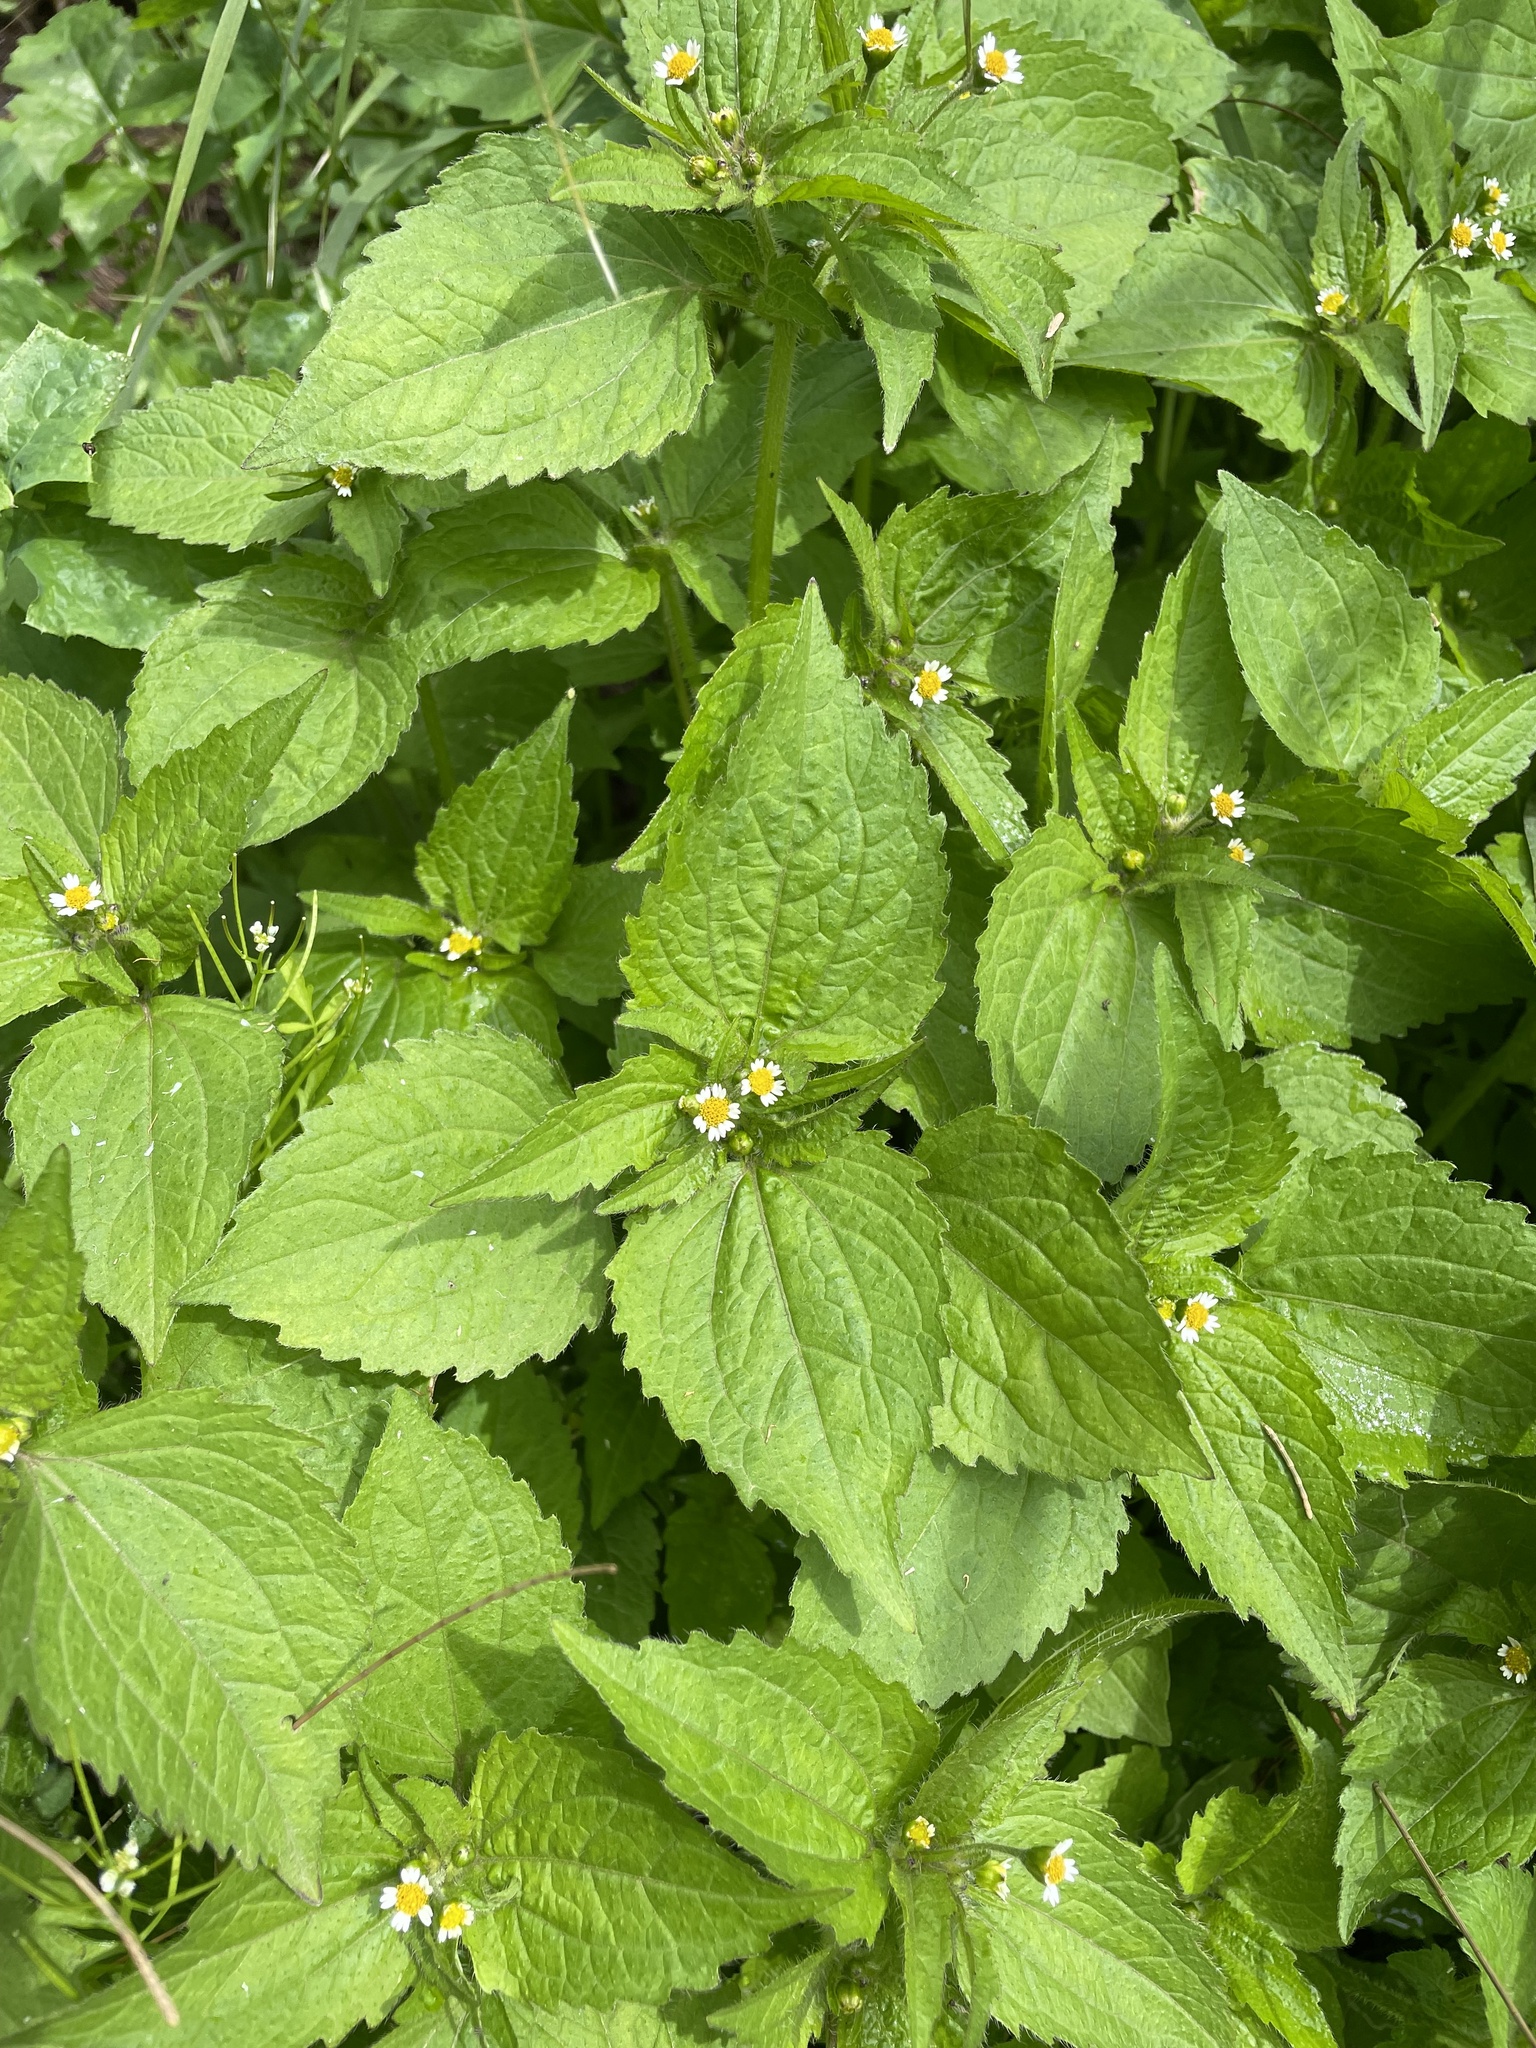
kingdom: Plantae
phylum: Tracheophyta
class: Magnoliopsida
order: Asterales
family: Asteraceae
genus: Galinsoga
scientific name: Galinsoga quadriradiata
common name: Shaggy soldier
